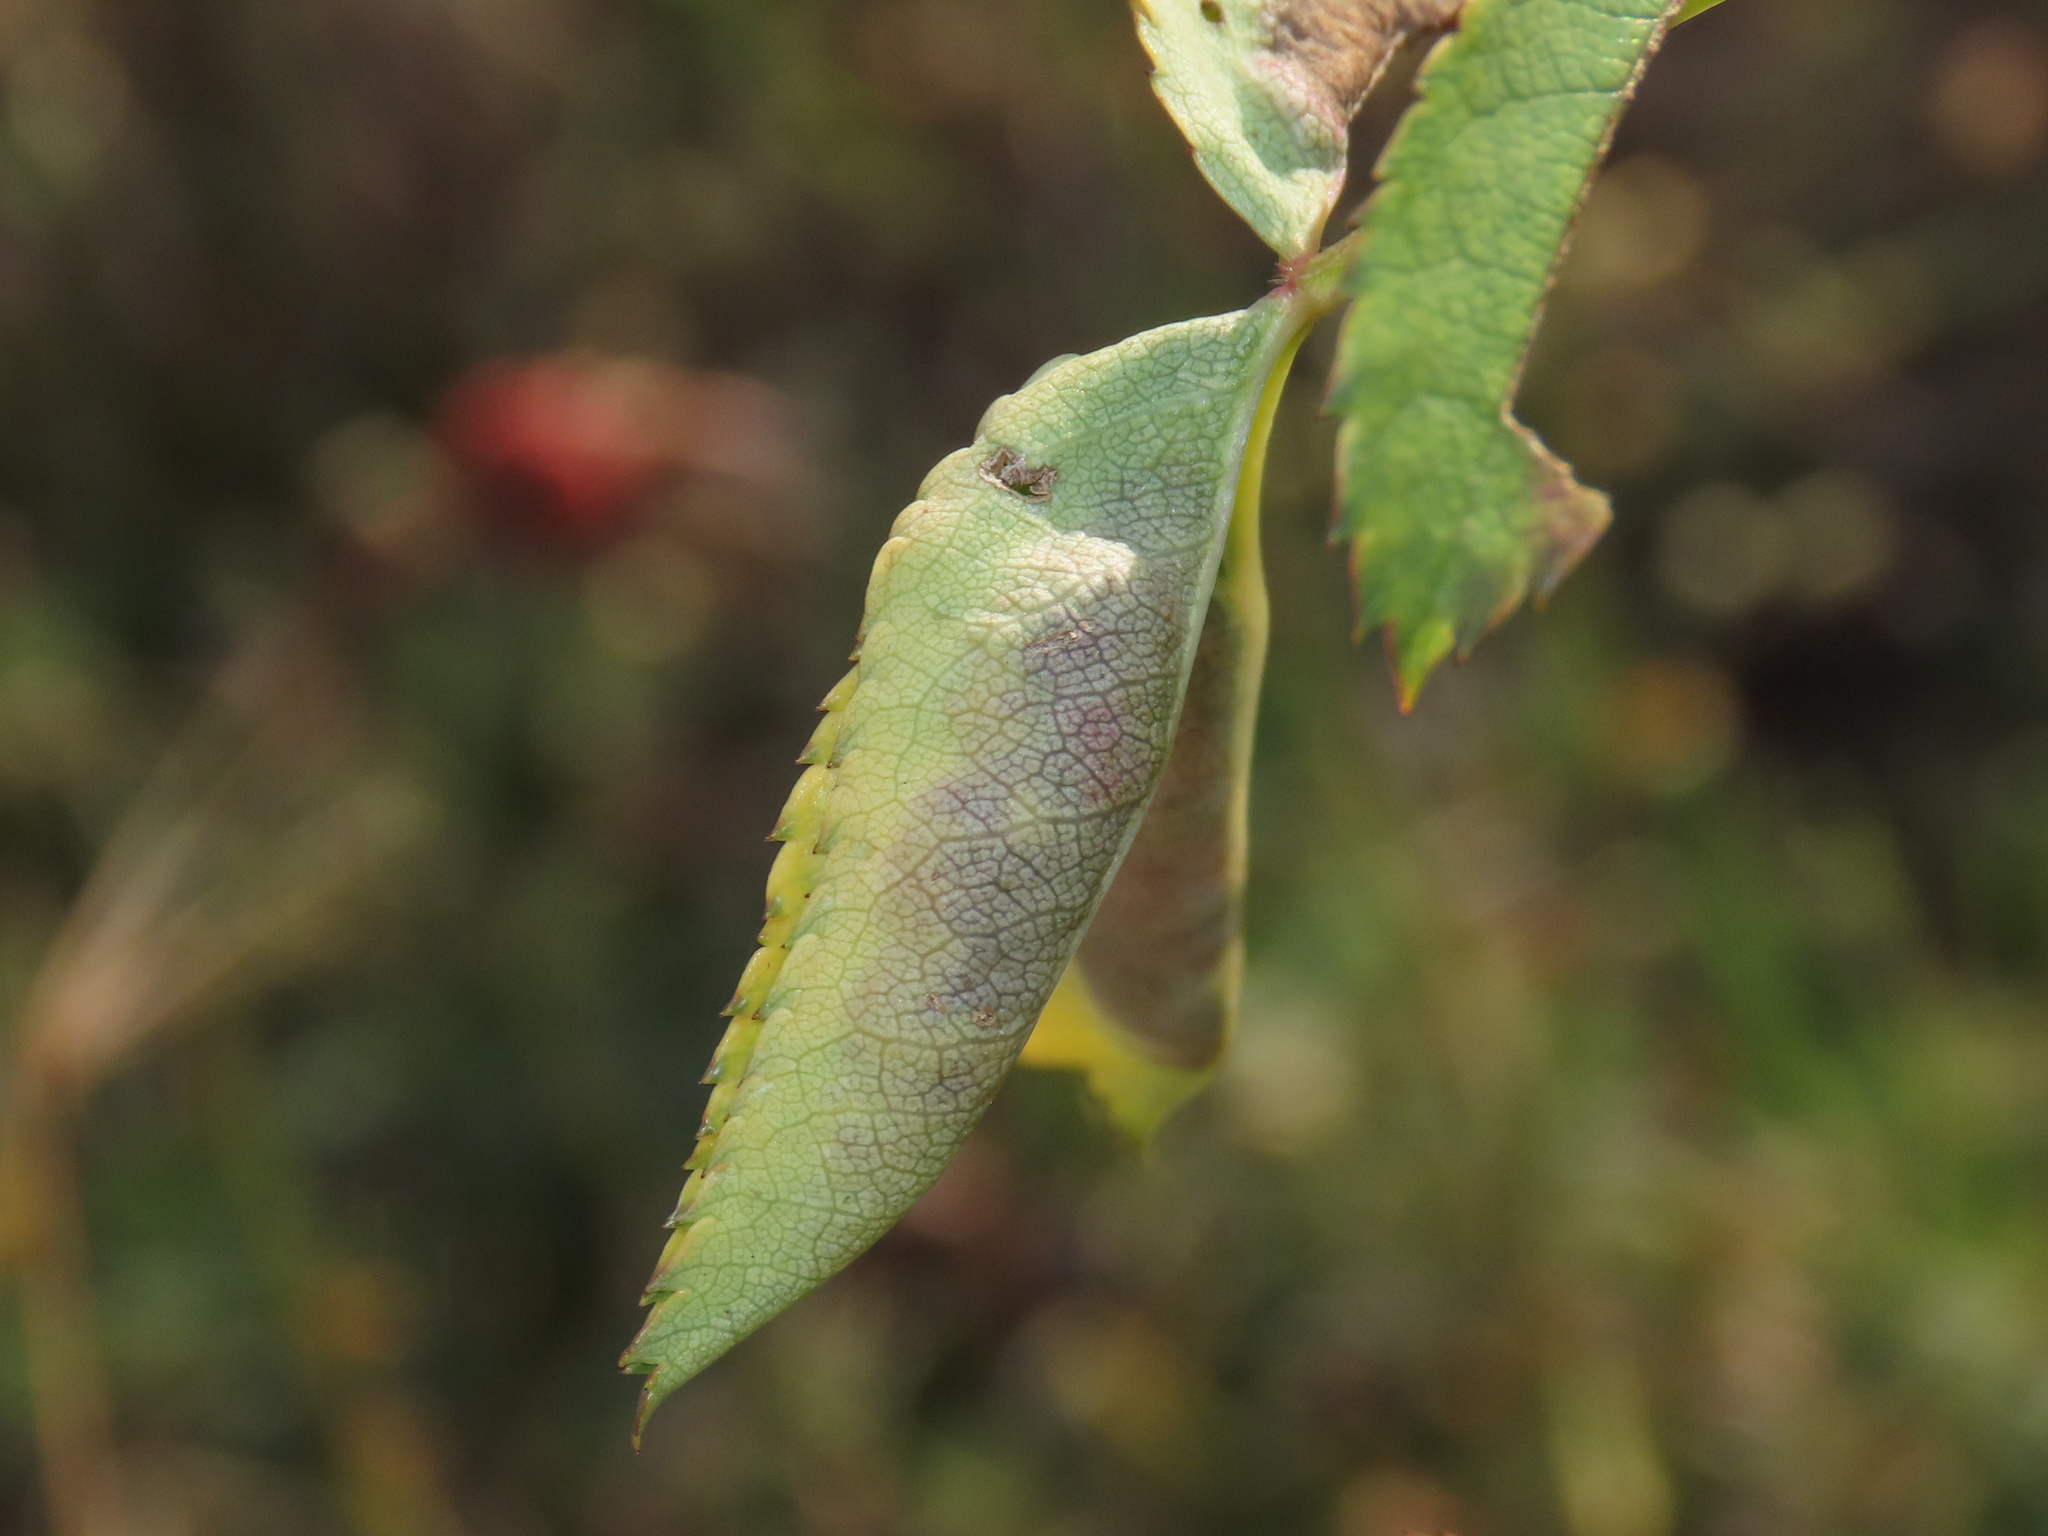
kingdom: Animalia
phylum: Arthropoda
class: Insecta
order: Diptera
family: Cecidomyiidae
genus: Wachtliella
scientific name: Wachtliella rosae
